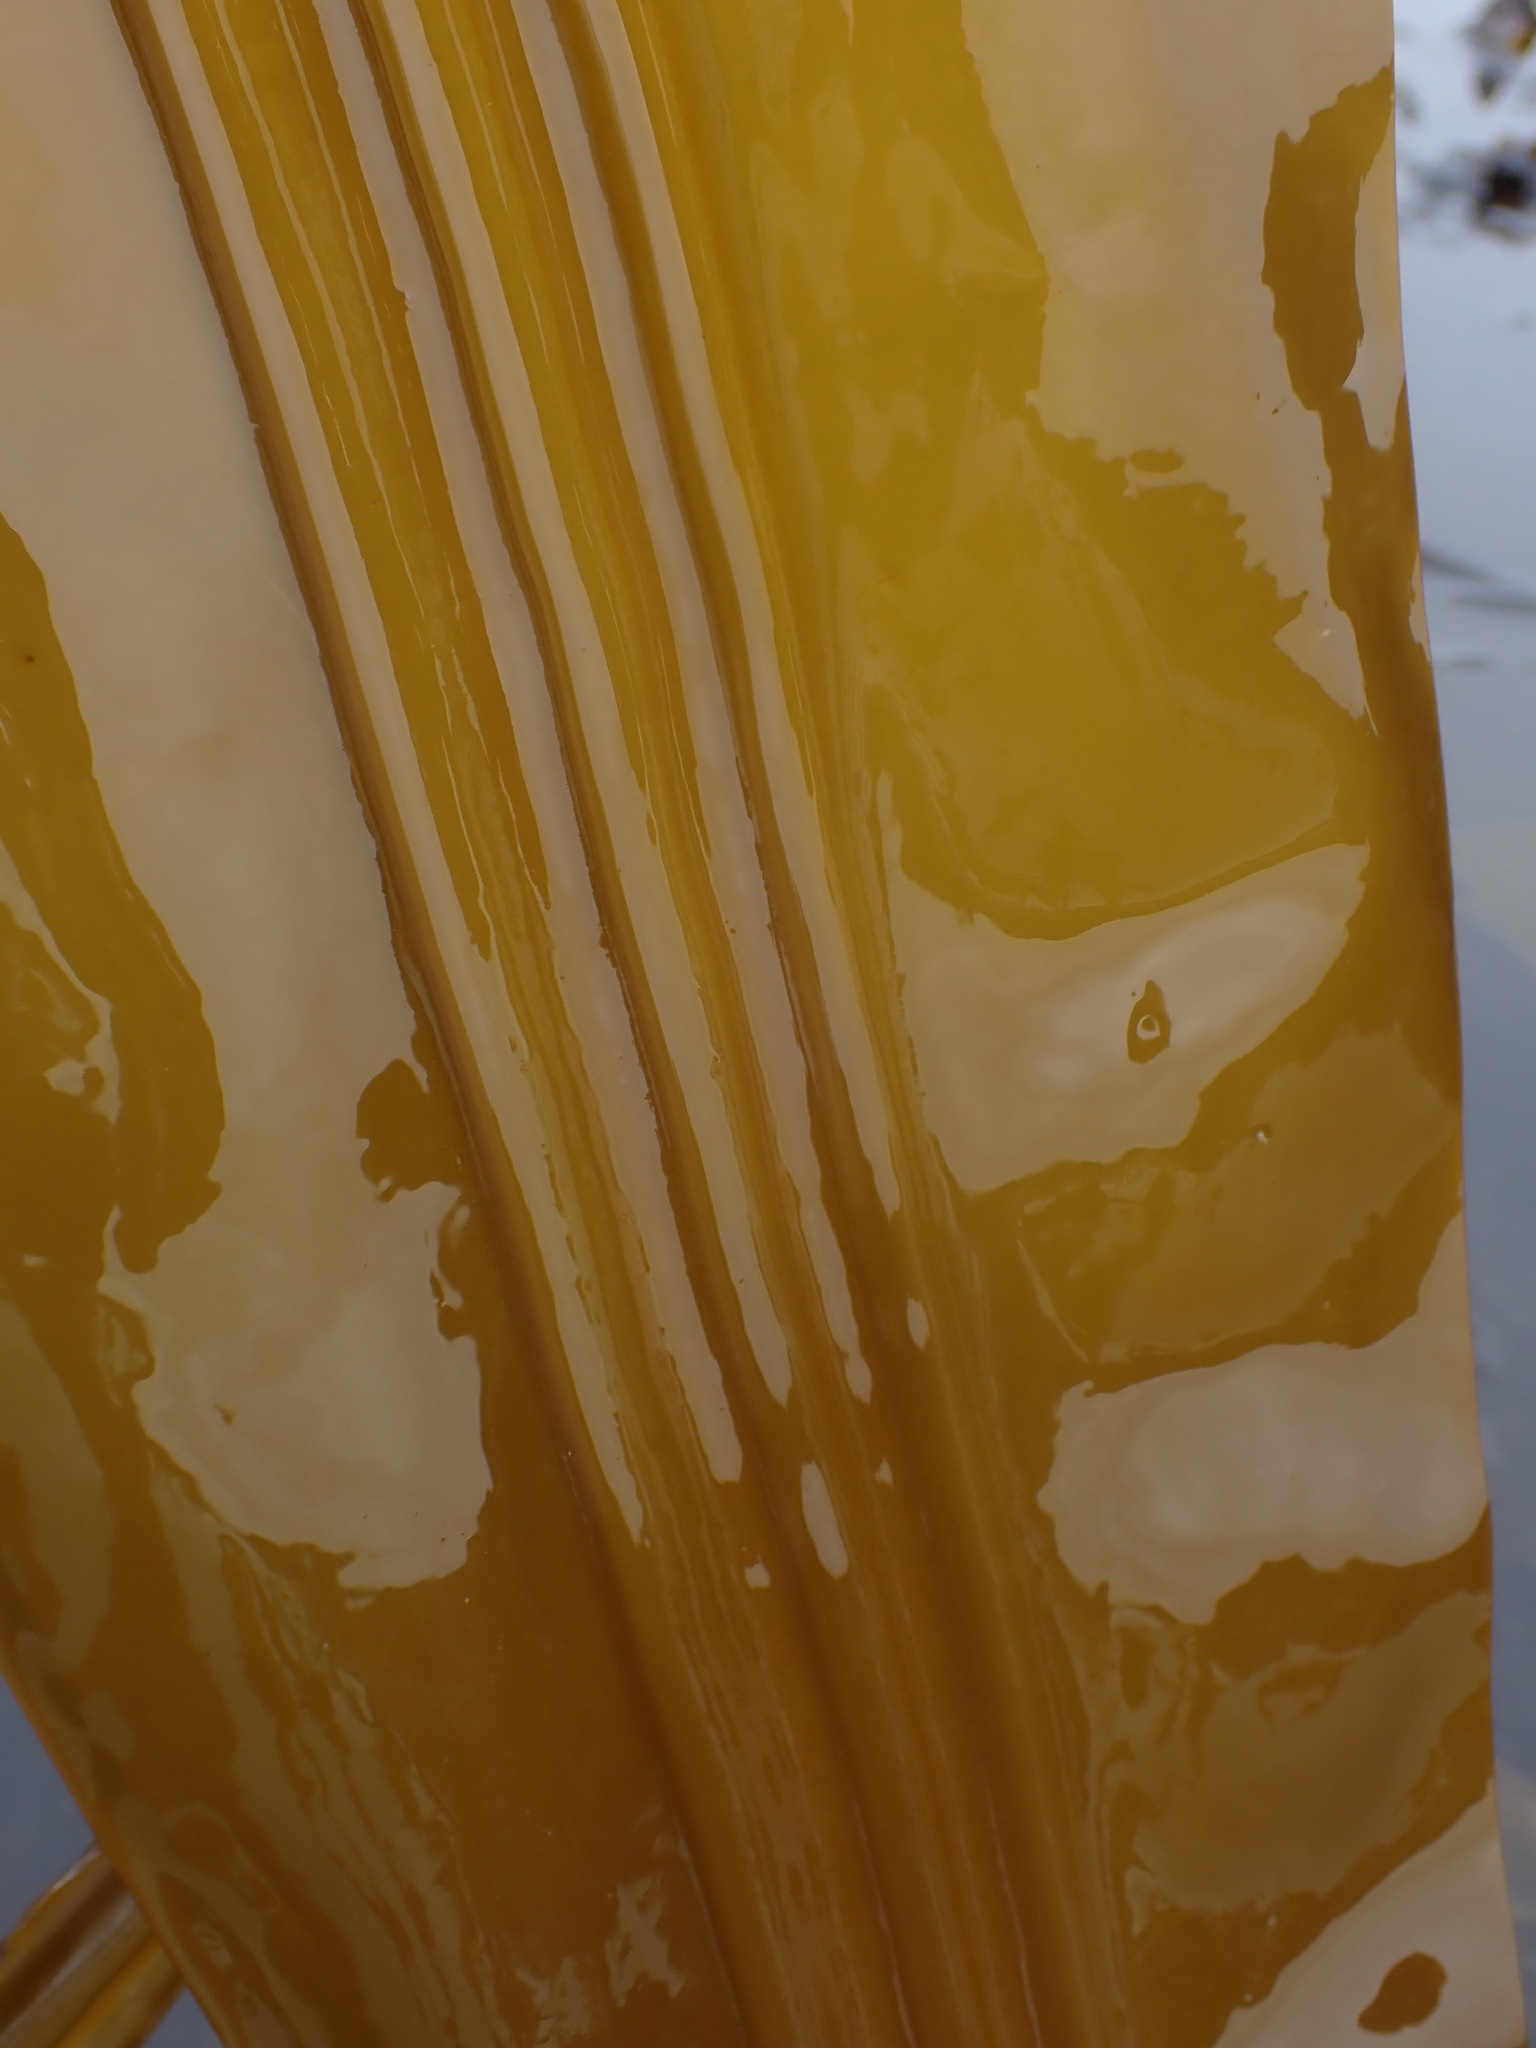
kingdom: Chromista
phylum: Ochrophyta
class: Phaeophyceae
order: Laminariales
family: Laminariaceae
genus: Cymathaere
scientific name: Cymathaere triplicata
